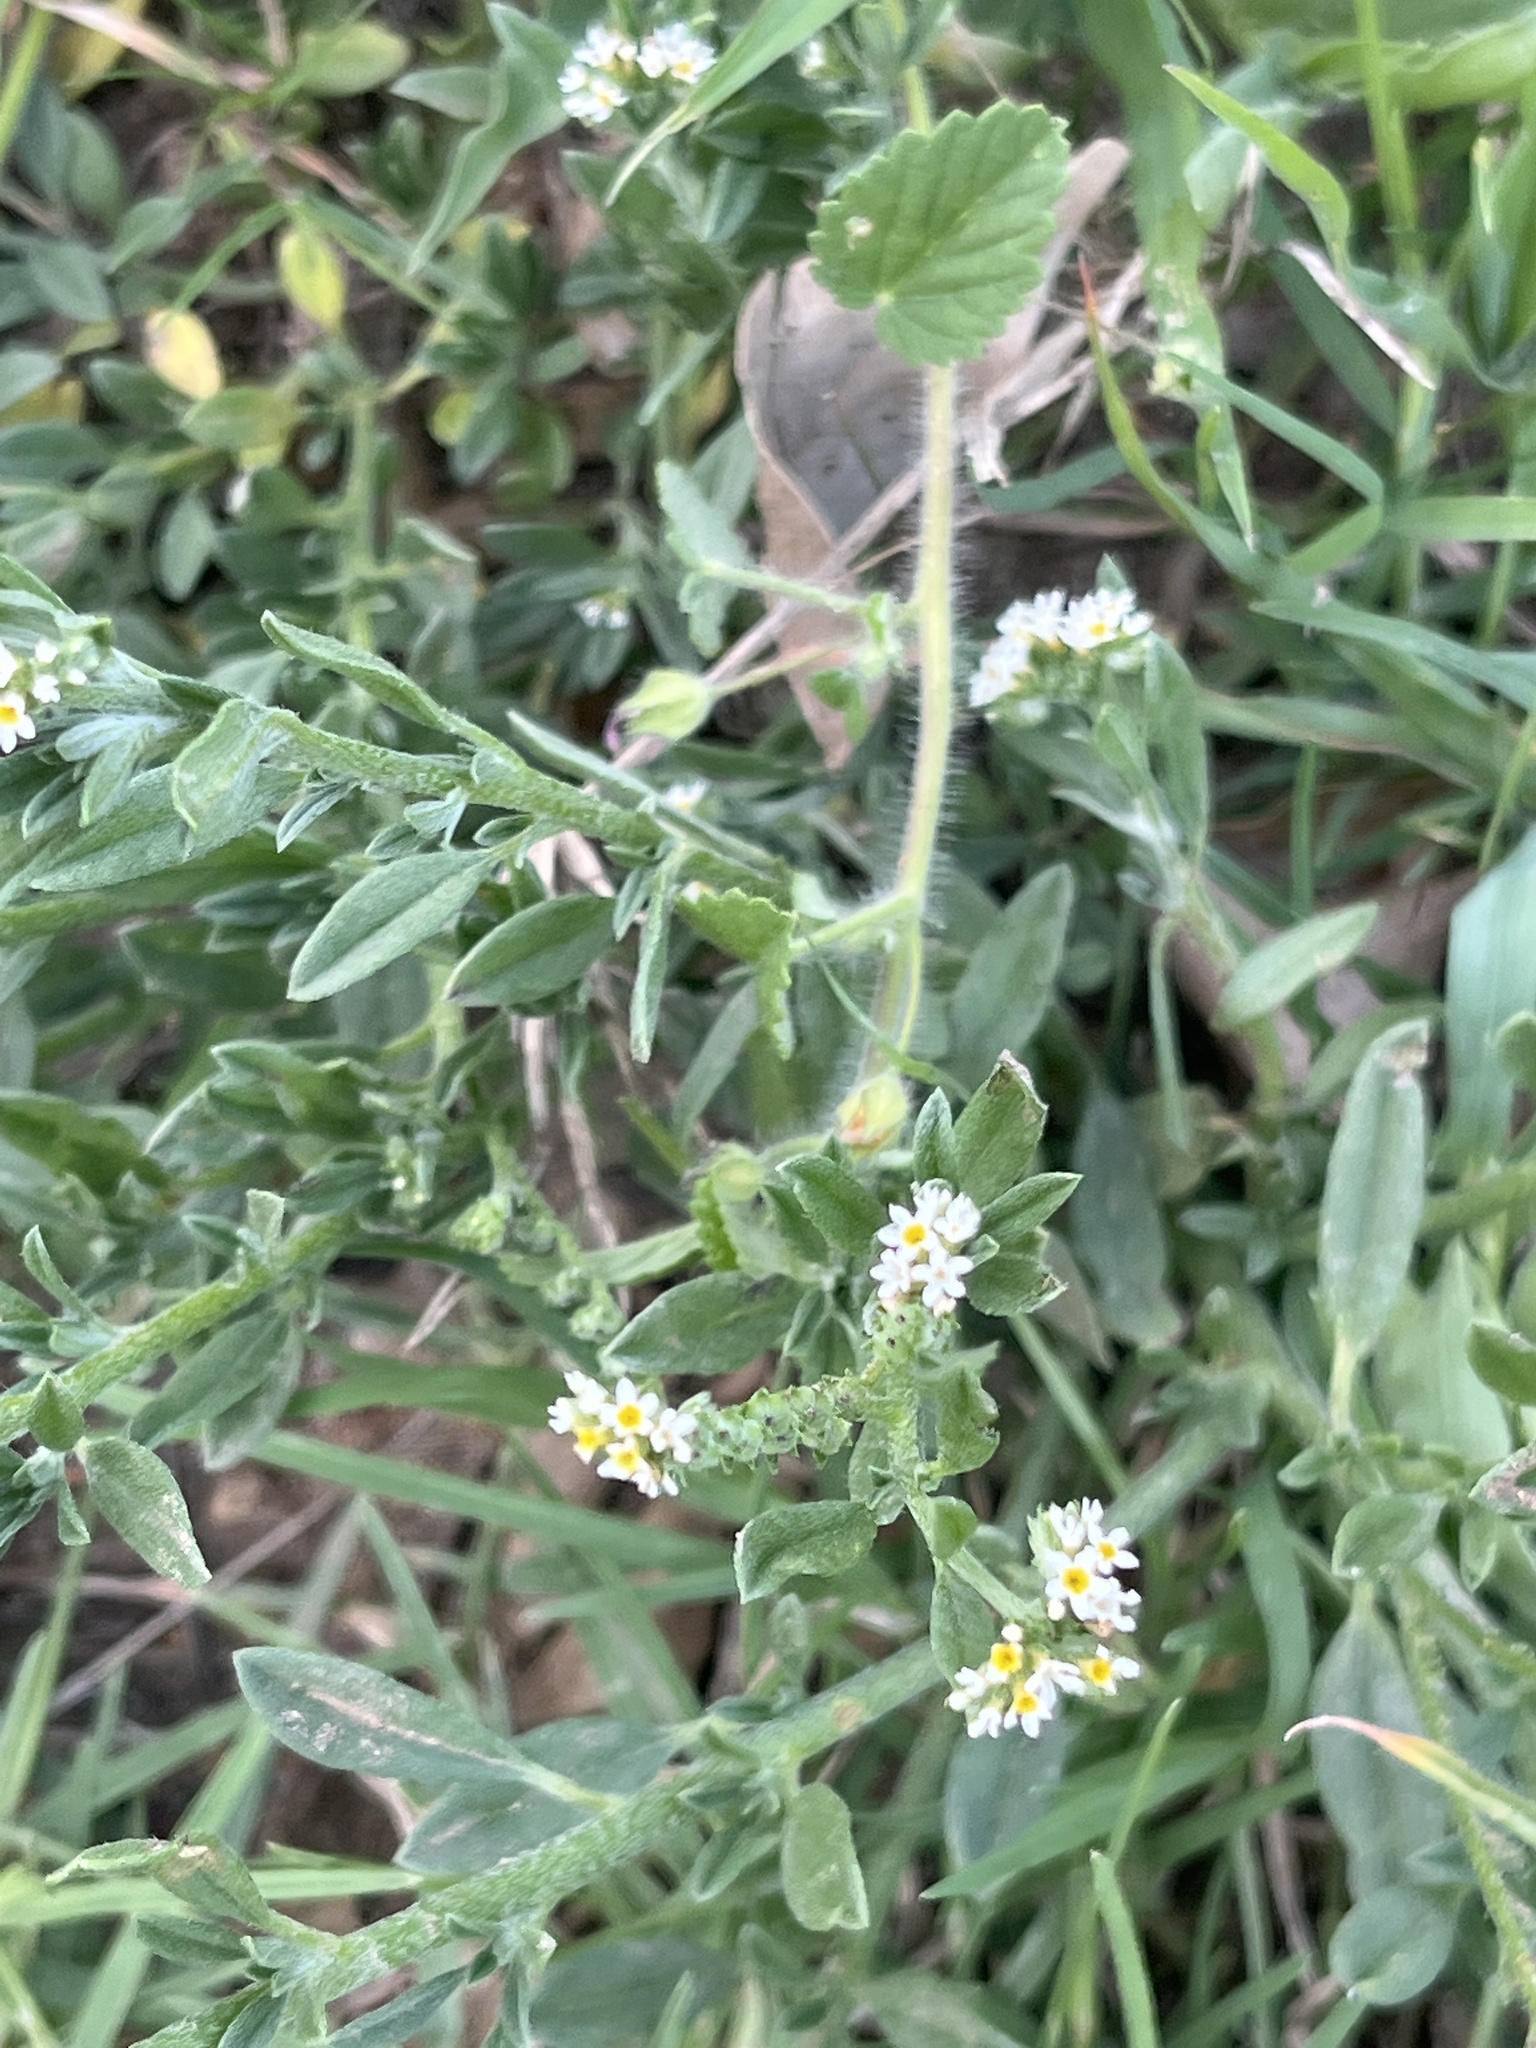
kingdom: Plantae
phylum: Tracheophyta
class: Magnoliopsida
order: Boraginales
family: Heliotropiaceae
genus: Euploca
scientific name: Euploca procumbens
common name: Fourspike heliotrope
